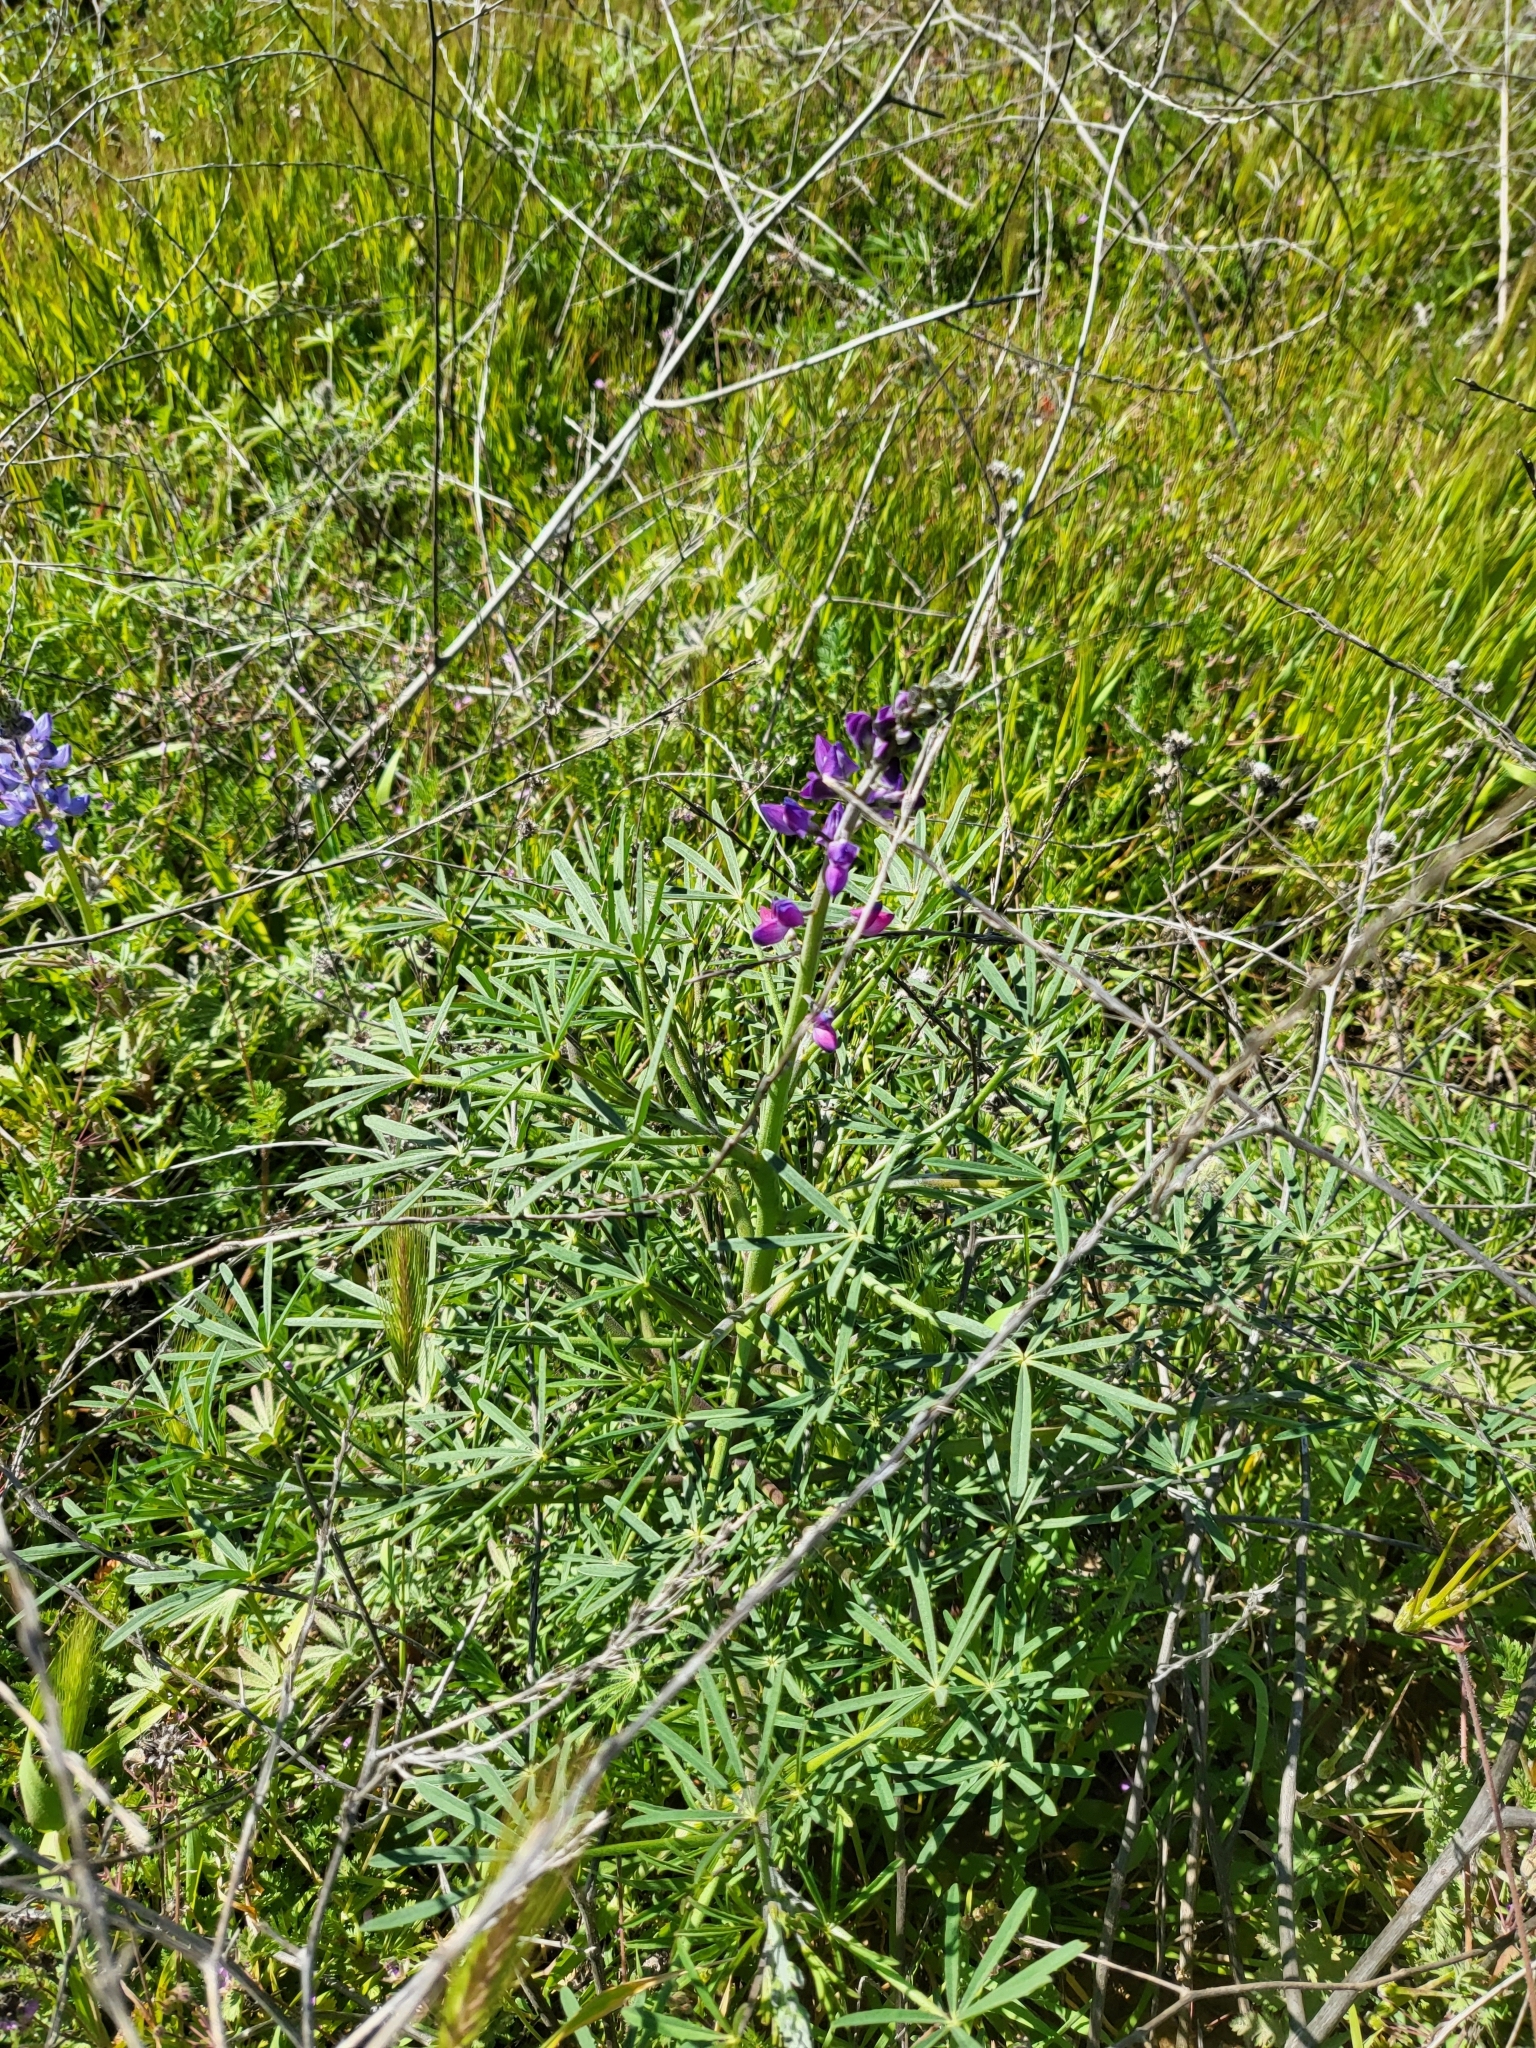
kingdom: Plantae
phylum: Tracheophyta
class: Magnoliopsida
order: Fabales
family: Fabaceae
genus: Lupinus
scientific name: Lupinus truncatus
